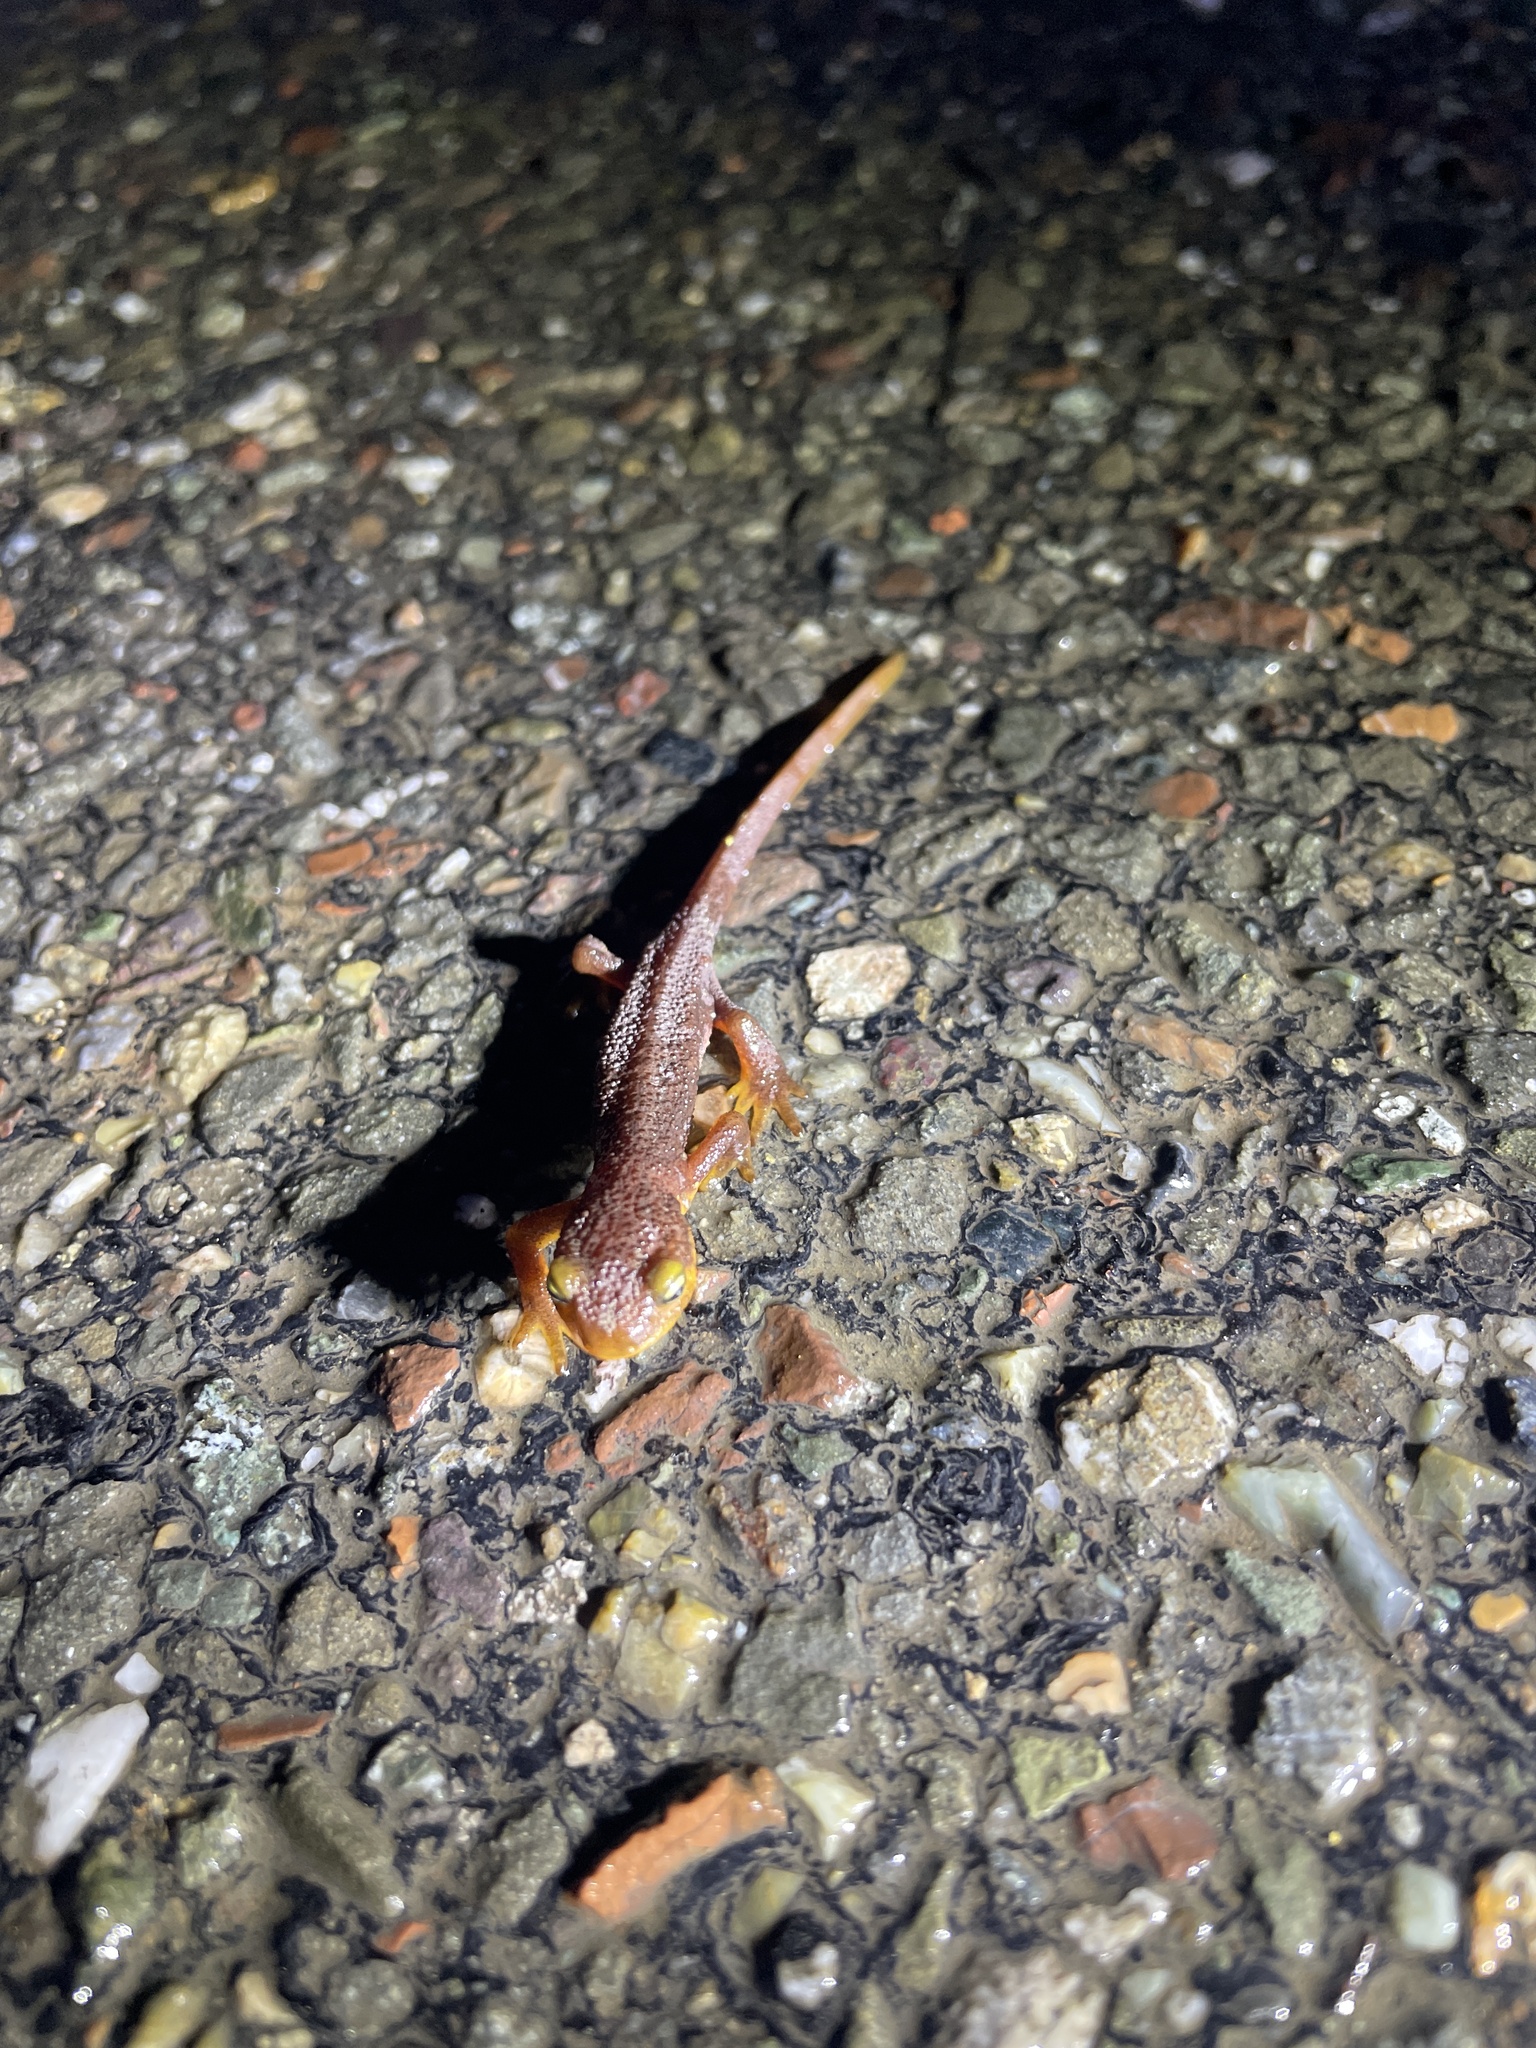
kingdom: Animalia
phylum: Chordata
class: Amphibia
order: Caudata
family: Salamandridae
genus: Taricha
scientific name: Taricha torosa
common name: California newt
